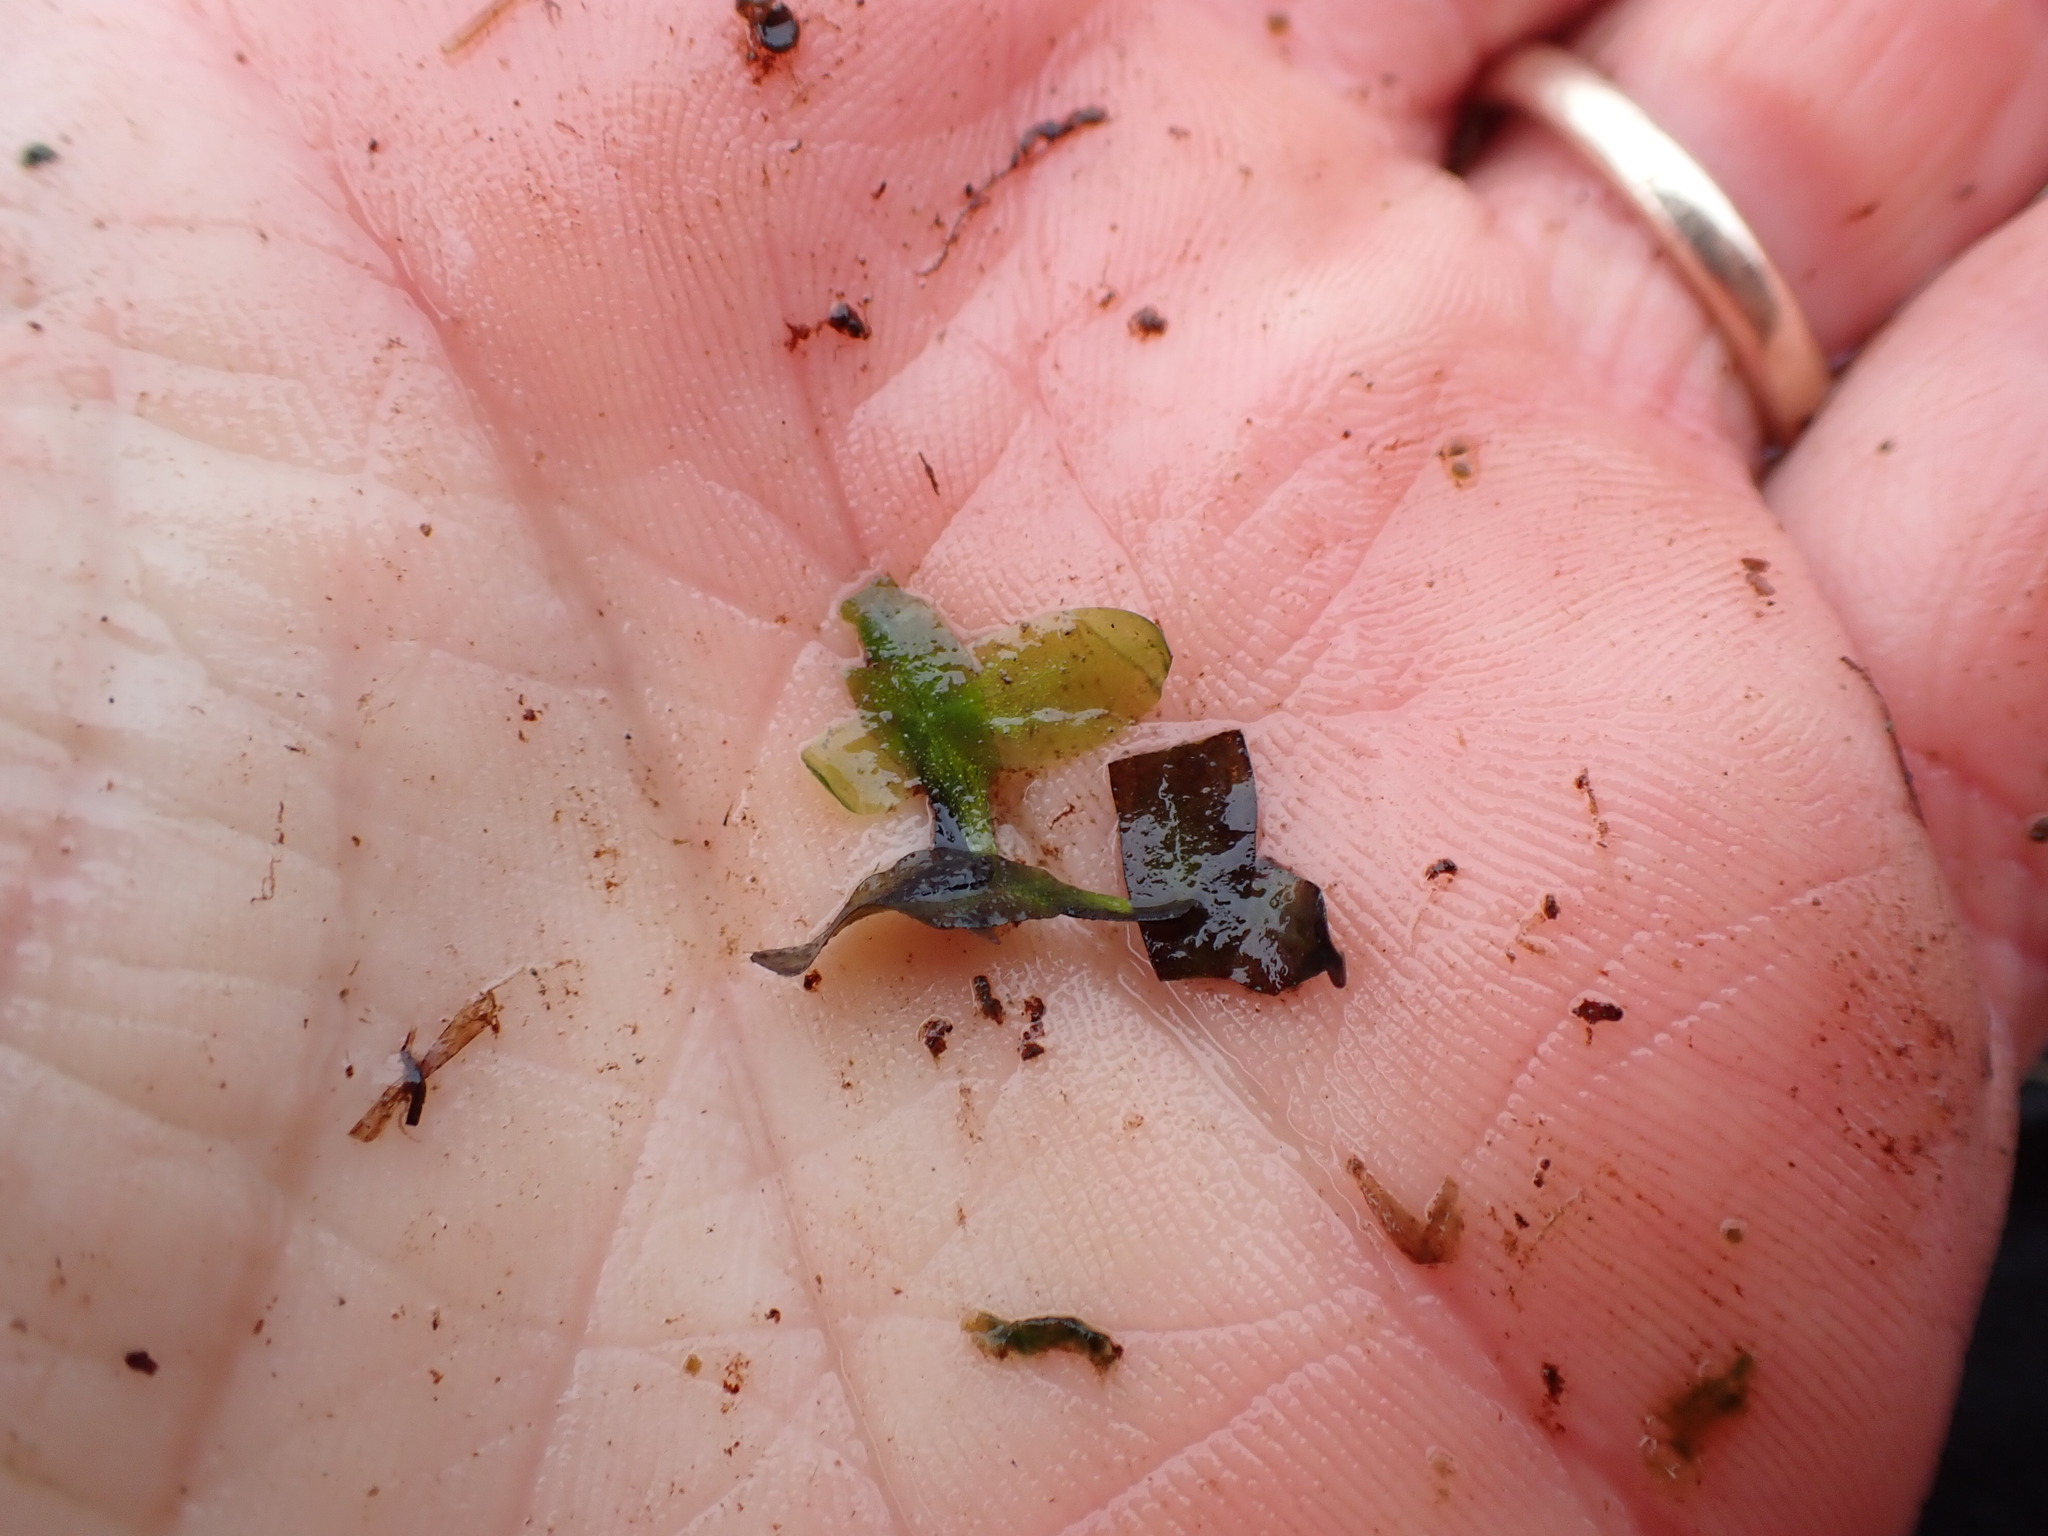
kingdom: Plantae
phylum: Tracheophyta
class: Liliopsida
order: Alismatales
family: Araceae
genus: Lemna
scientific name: Lemna trisulca
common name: Ivy-leaved duckweed
